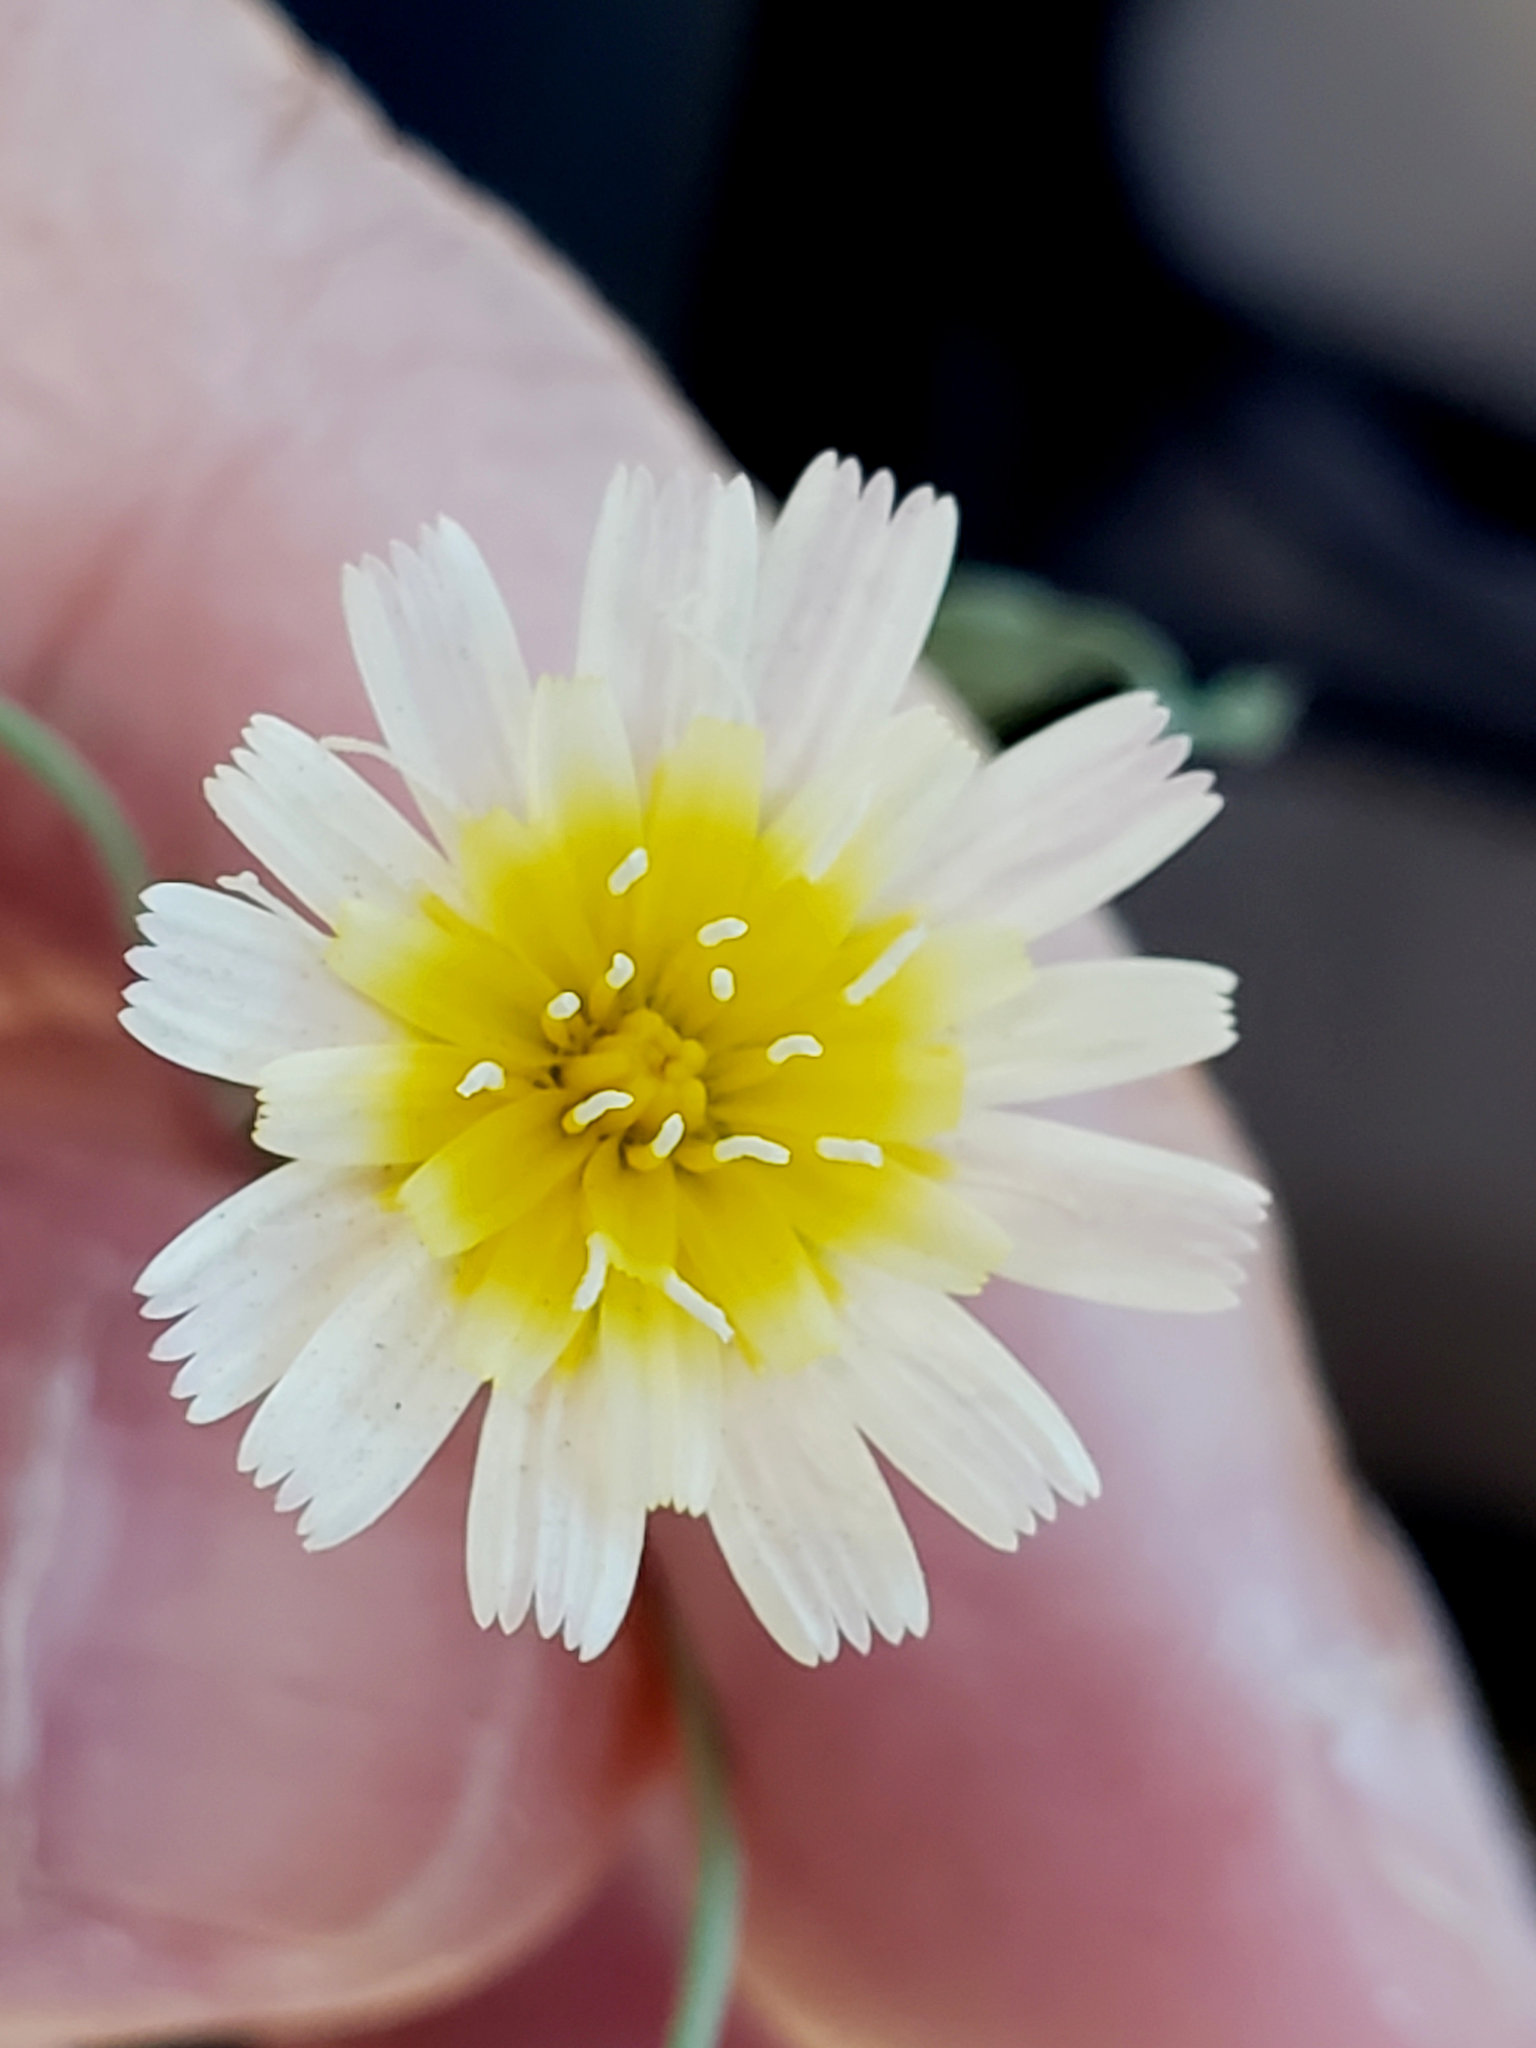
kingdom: Plantae
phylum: Tracheophyta
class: Magnoliopsida
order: Asterales
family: Asteraceae
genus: Malacothrix
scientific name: Malacothrix floccifera
